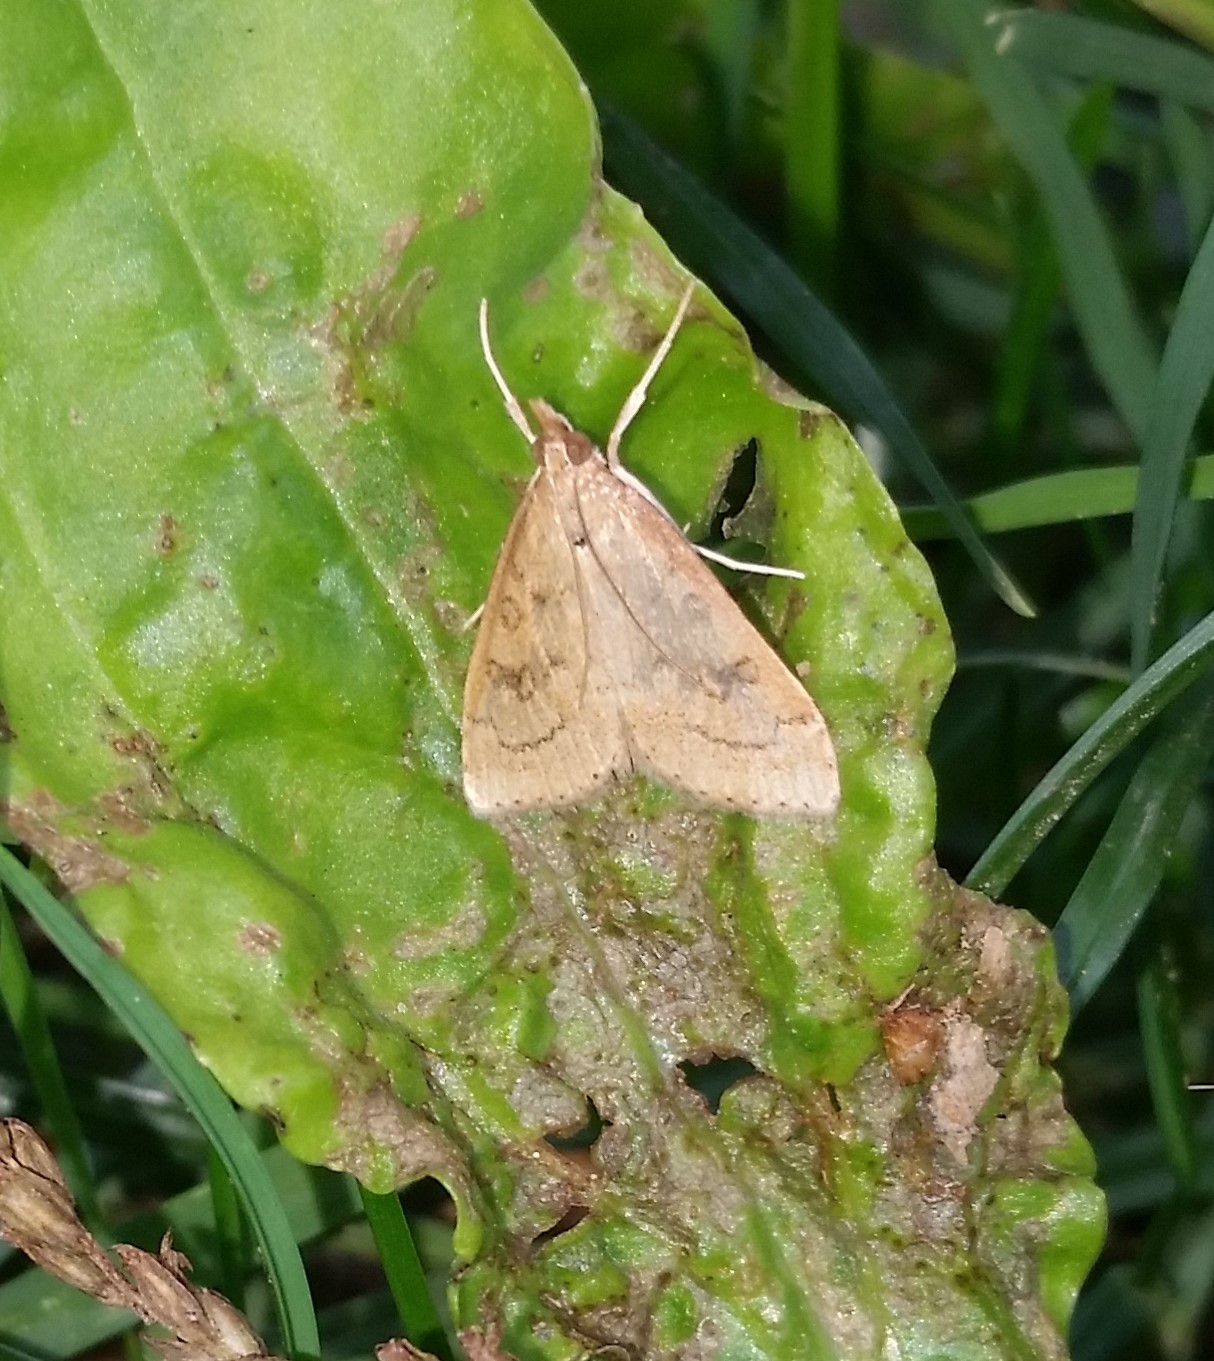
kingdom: Animalia
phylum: Arthropoda
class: Insecta
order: Lepidoptera
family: Crambidae
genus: Udea
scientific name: Udea rubigalis
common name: Celery leaftier moth
